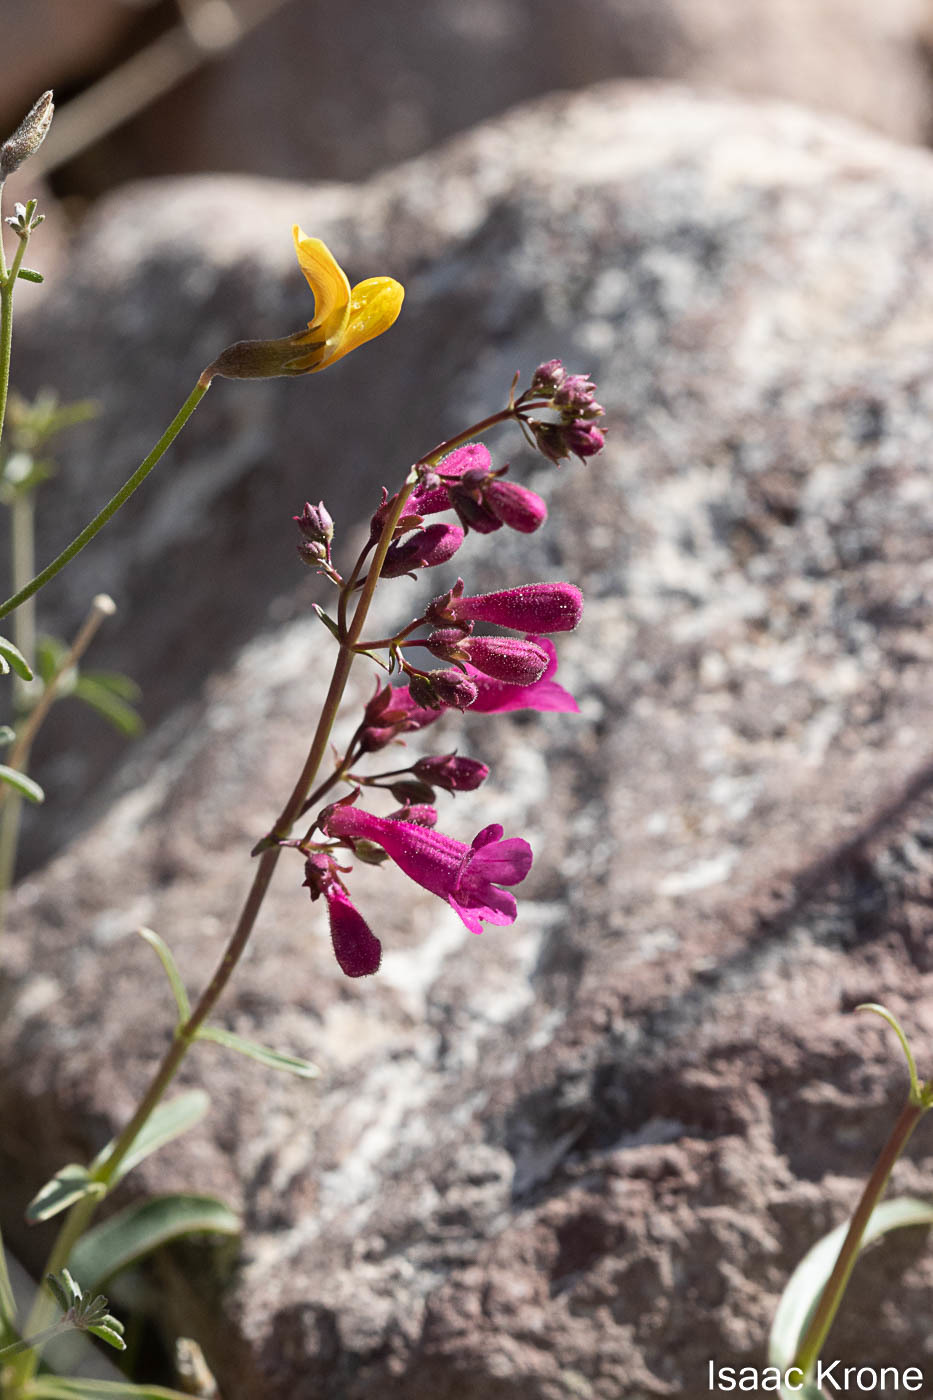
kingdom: Plantae
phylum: Tracheophyta
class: Magnoliopsida
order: Lamiales
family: Plantaginaceae
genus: Penstemon
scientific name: Penstemon parryi
